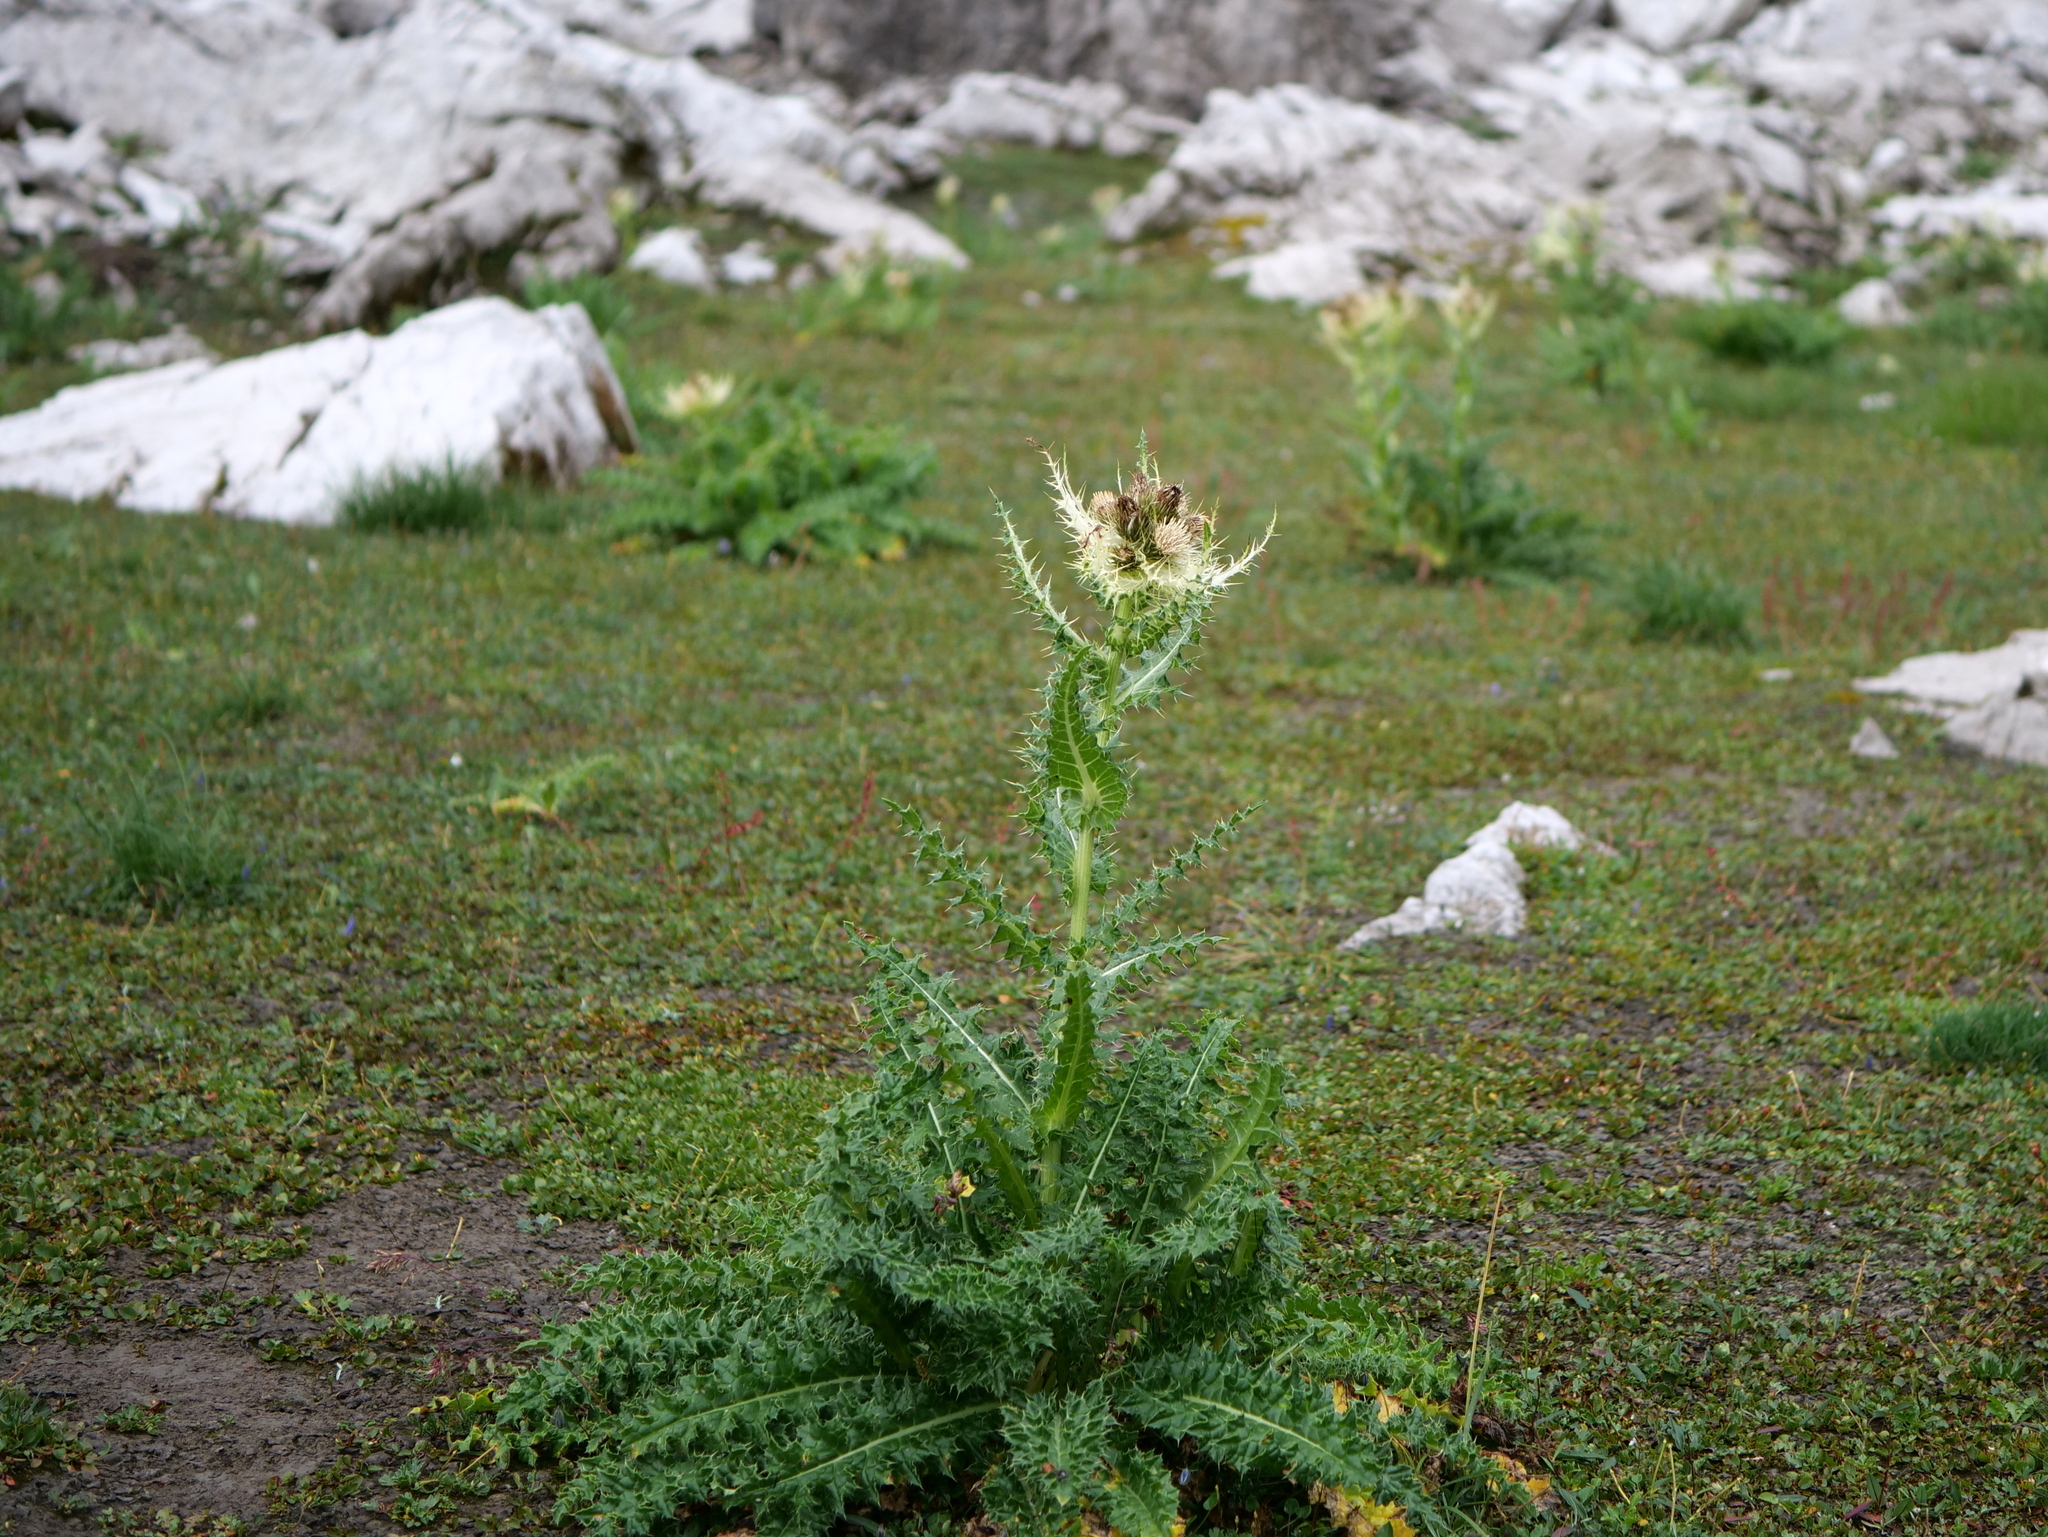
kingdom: Plantae
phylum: Tracheophyta
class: Magnoliopsida
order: Asterales
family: Asteraceae
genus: Cirsium
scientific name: Cirsium spinosissimum
